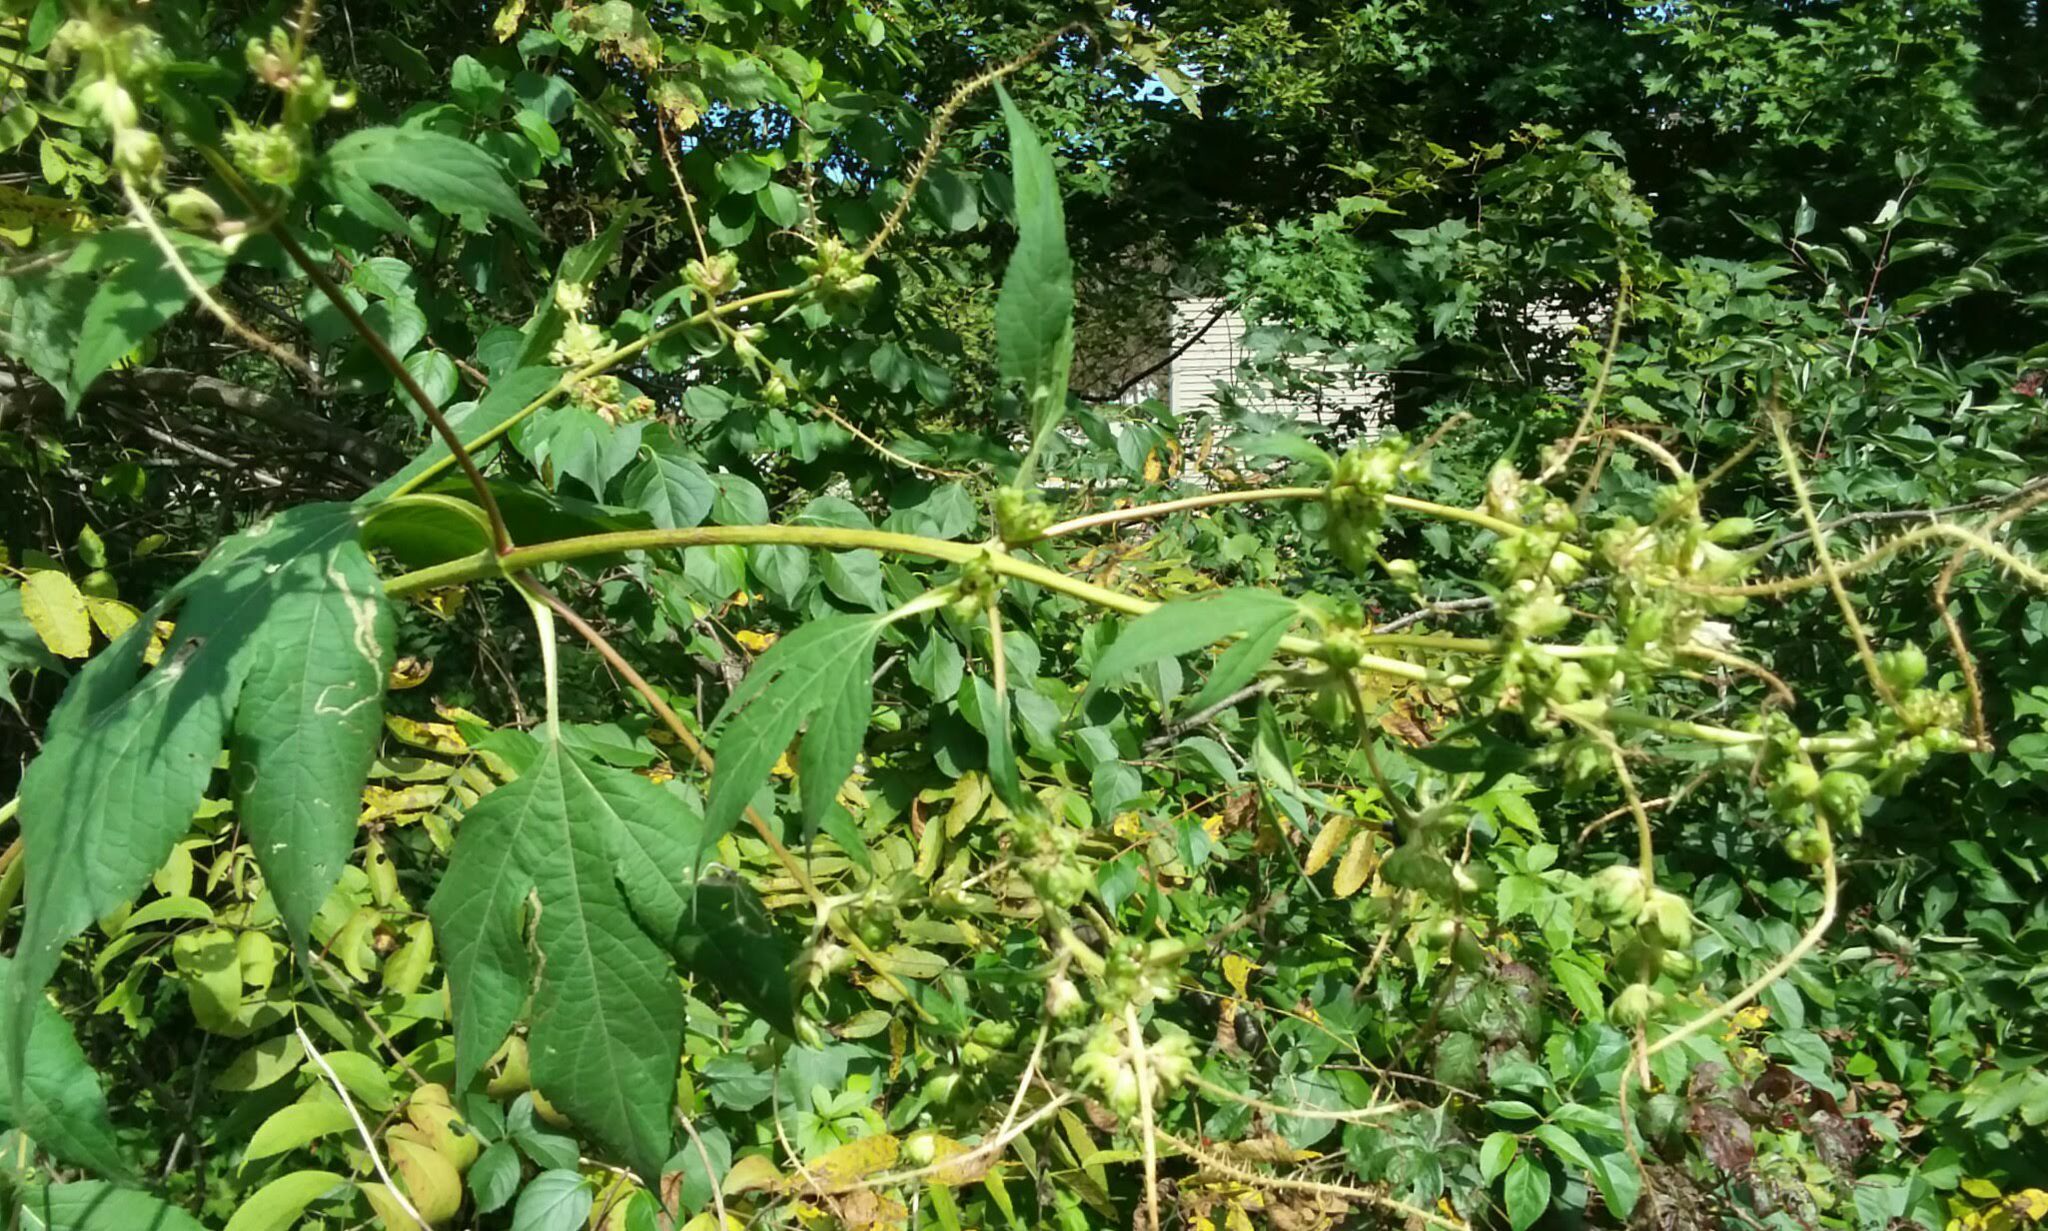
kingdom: Plantae
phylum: Tracheophyta
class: Magnoliopsida
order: Asterales
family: Asteraceae
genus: Ambrosia
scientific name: Ambrosia trifida
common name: Giant ragweed
